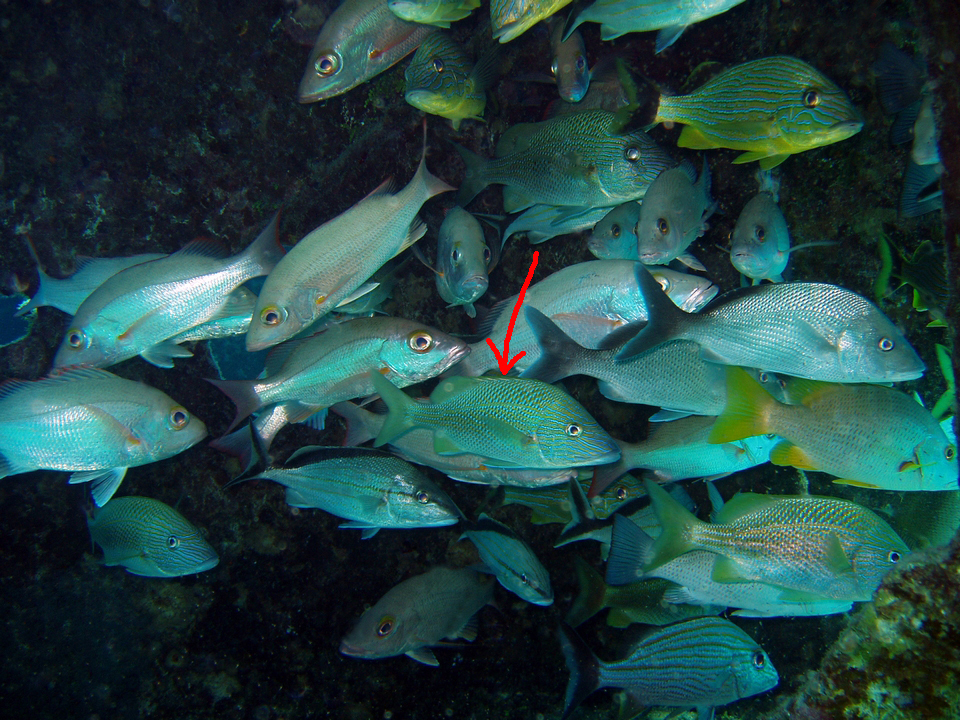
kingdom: Animalia
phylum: Chordata
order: Perciformes
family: Haemulidae
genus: Haemulon
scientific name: Haemulon plumierii
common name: White grunt
